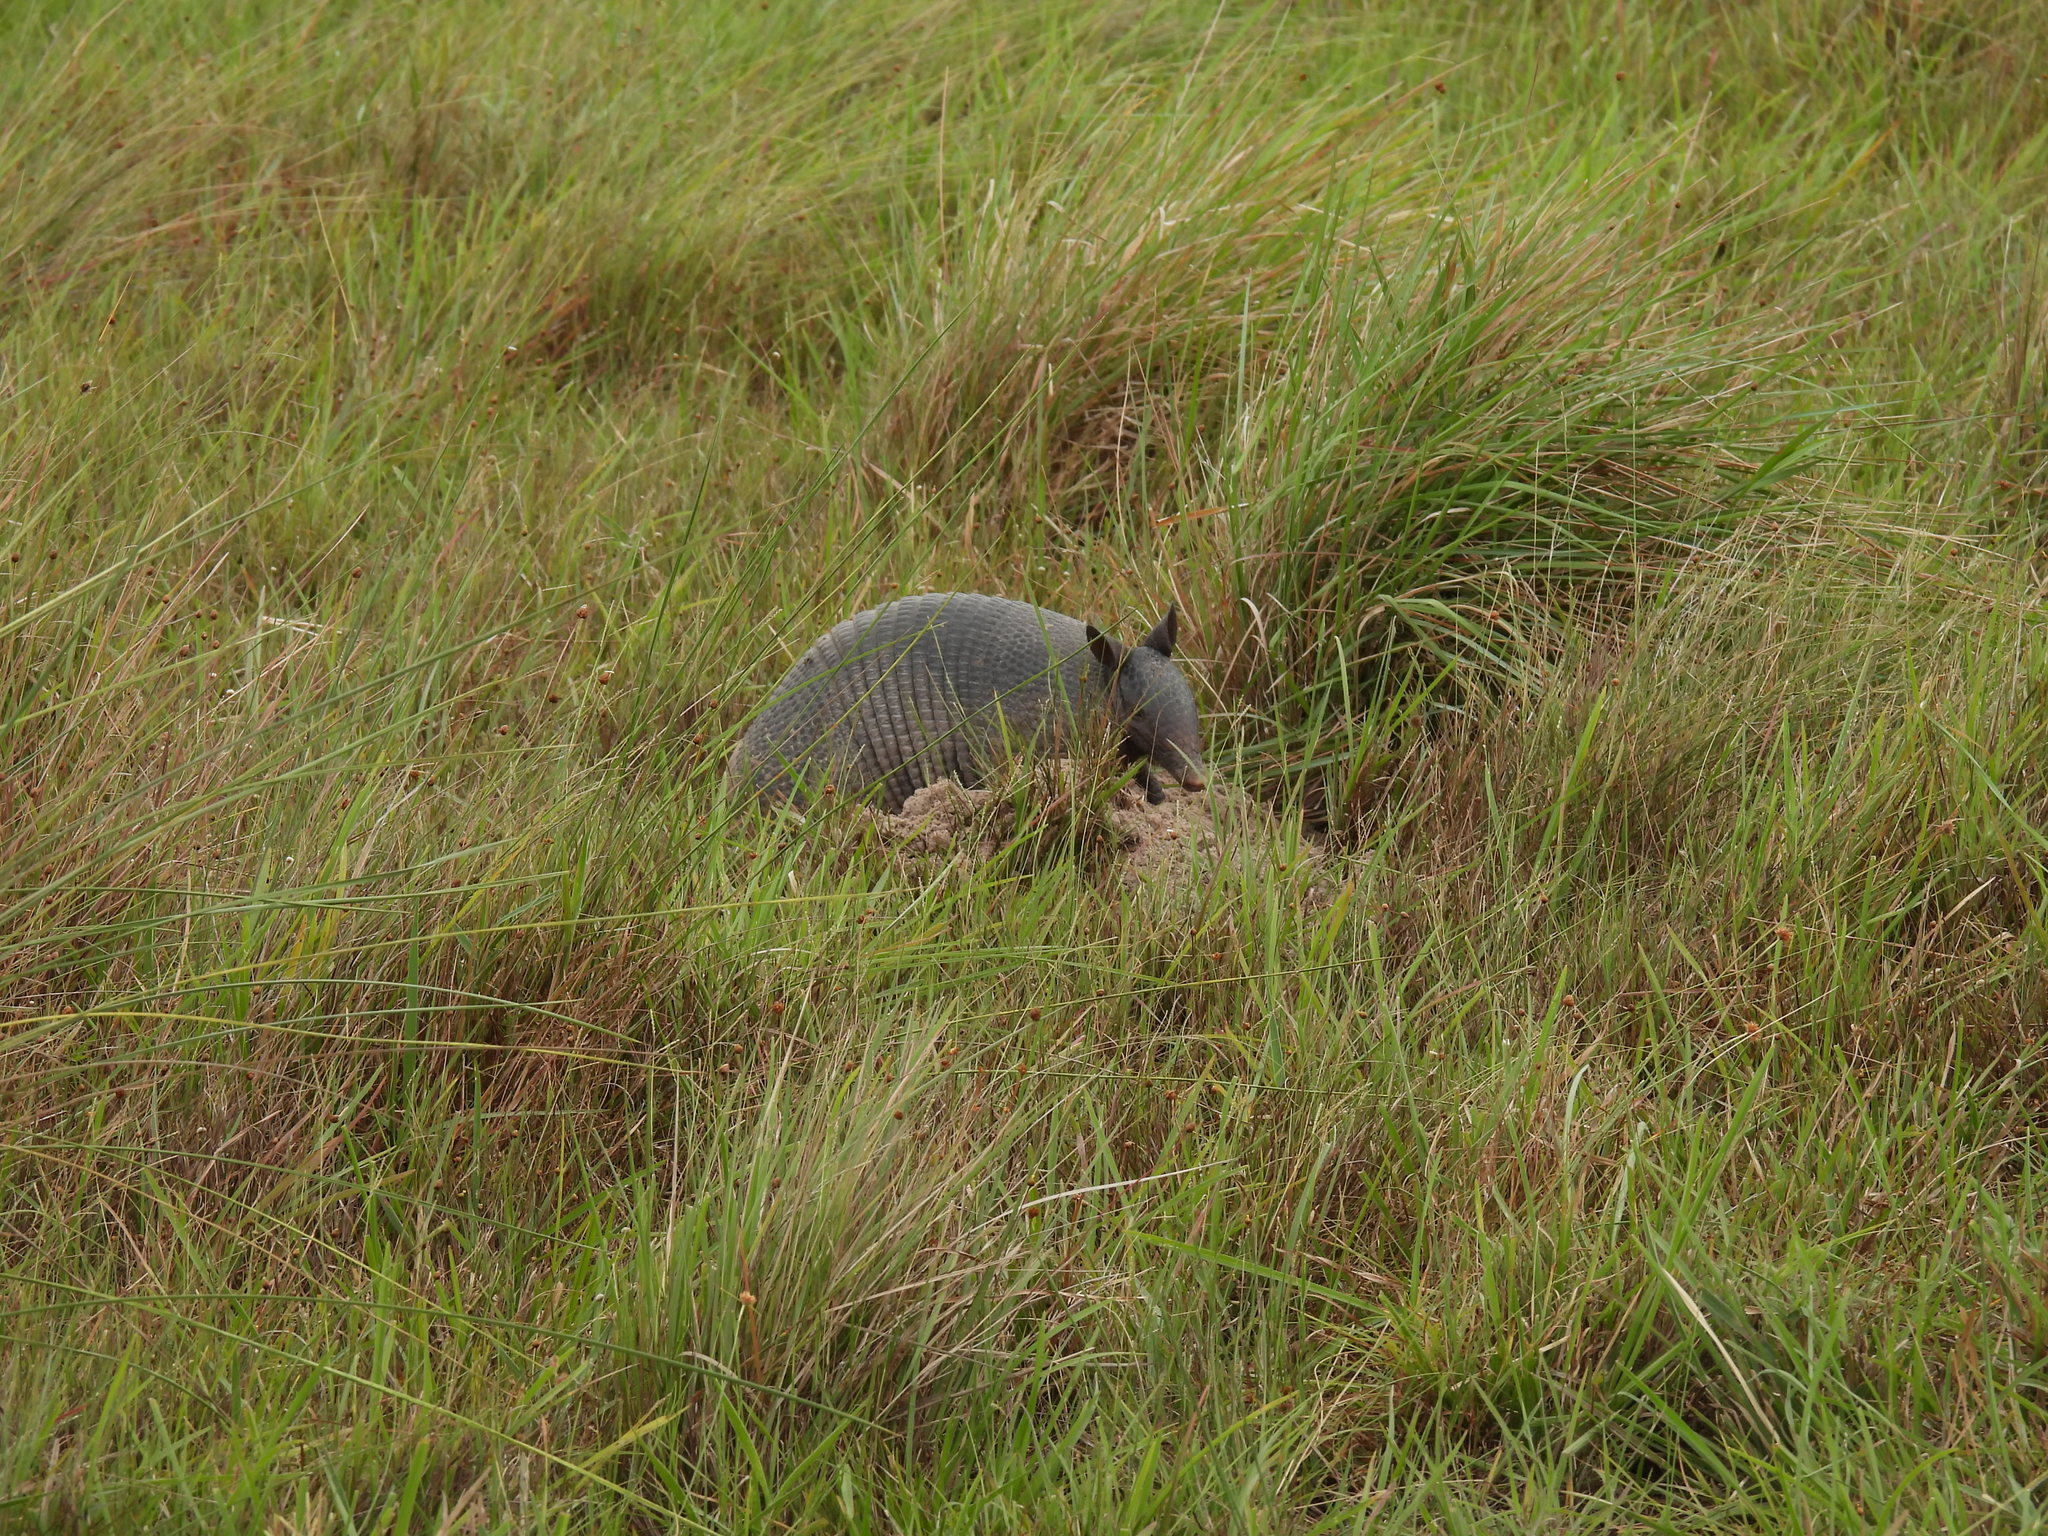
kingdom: Animalia
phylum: Chordata
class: Mammalia
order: Cingulata
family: Dasypodidae
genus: Dasypus
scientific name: Dasypus novemcinctus
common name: Nine-banded armadillo
